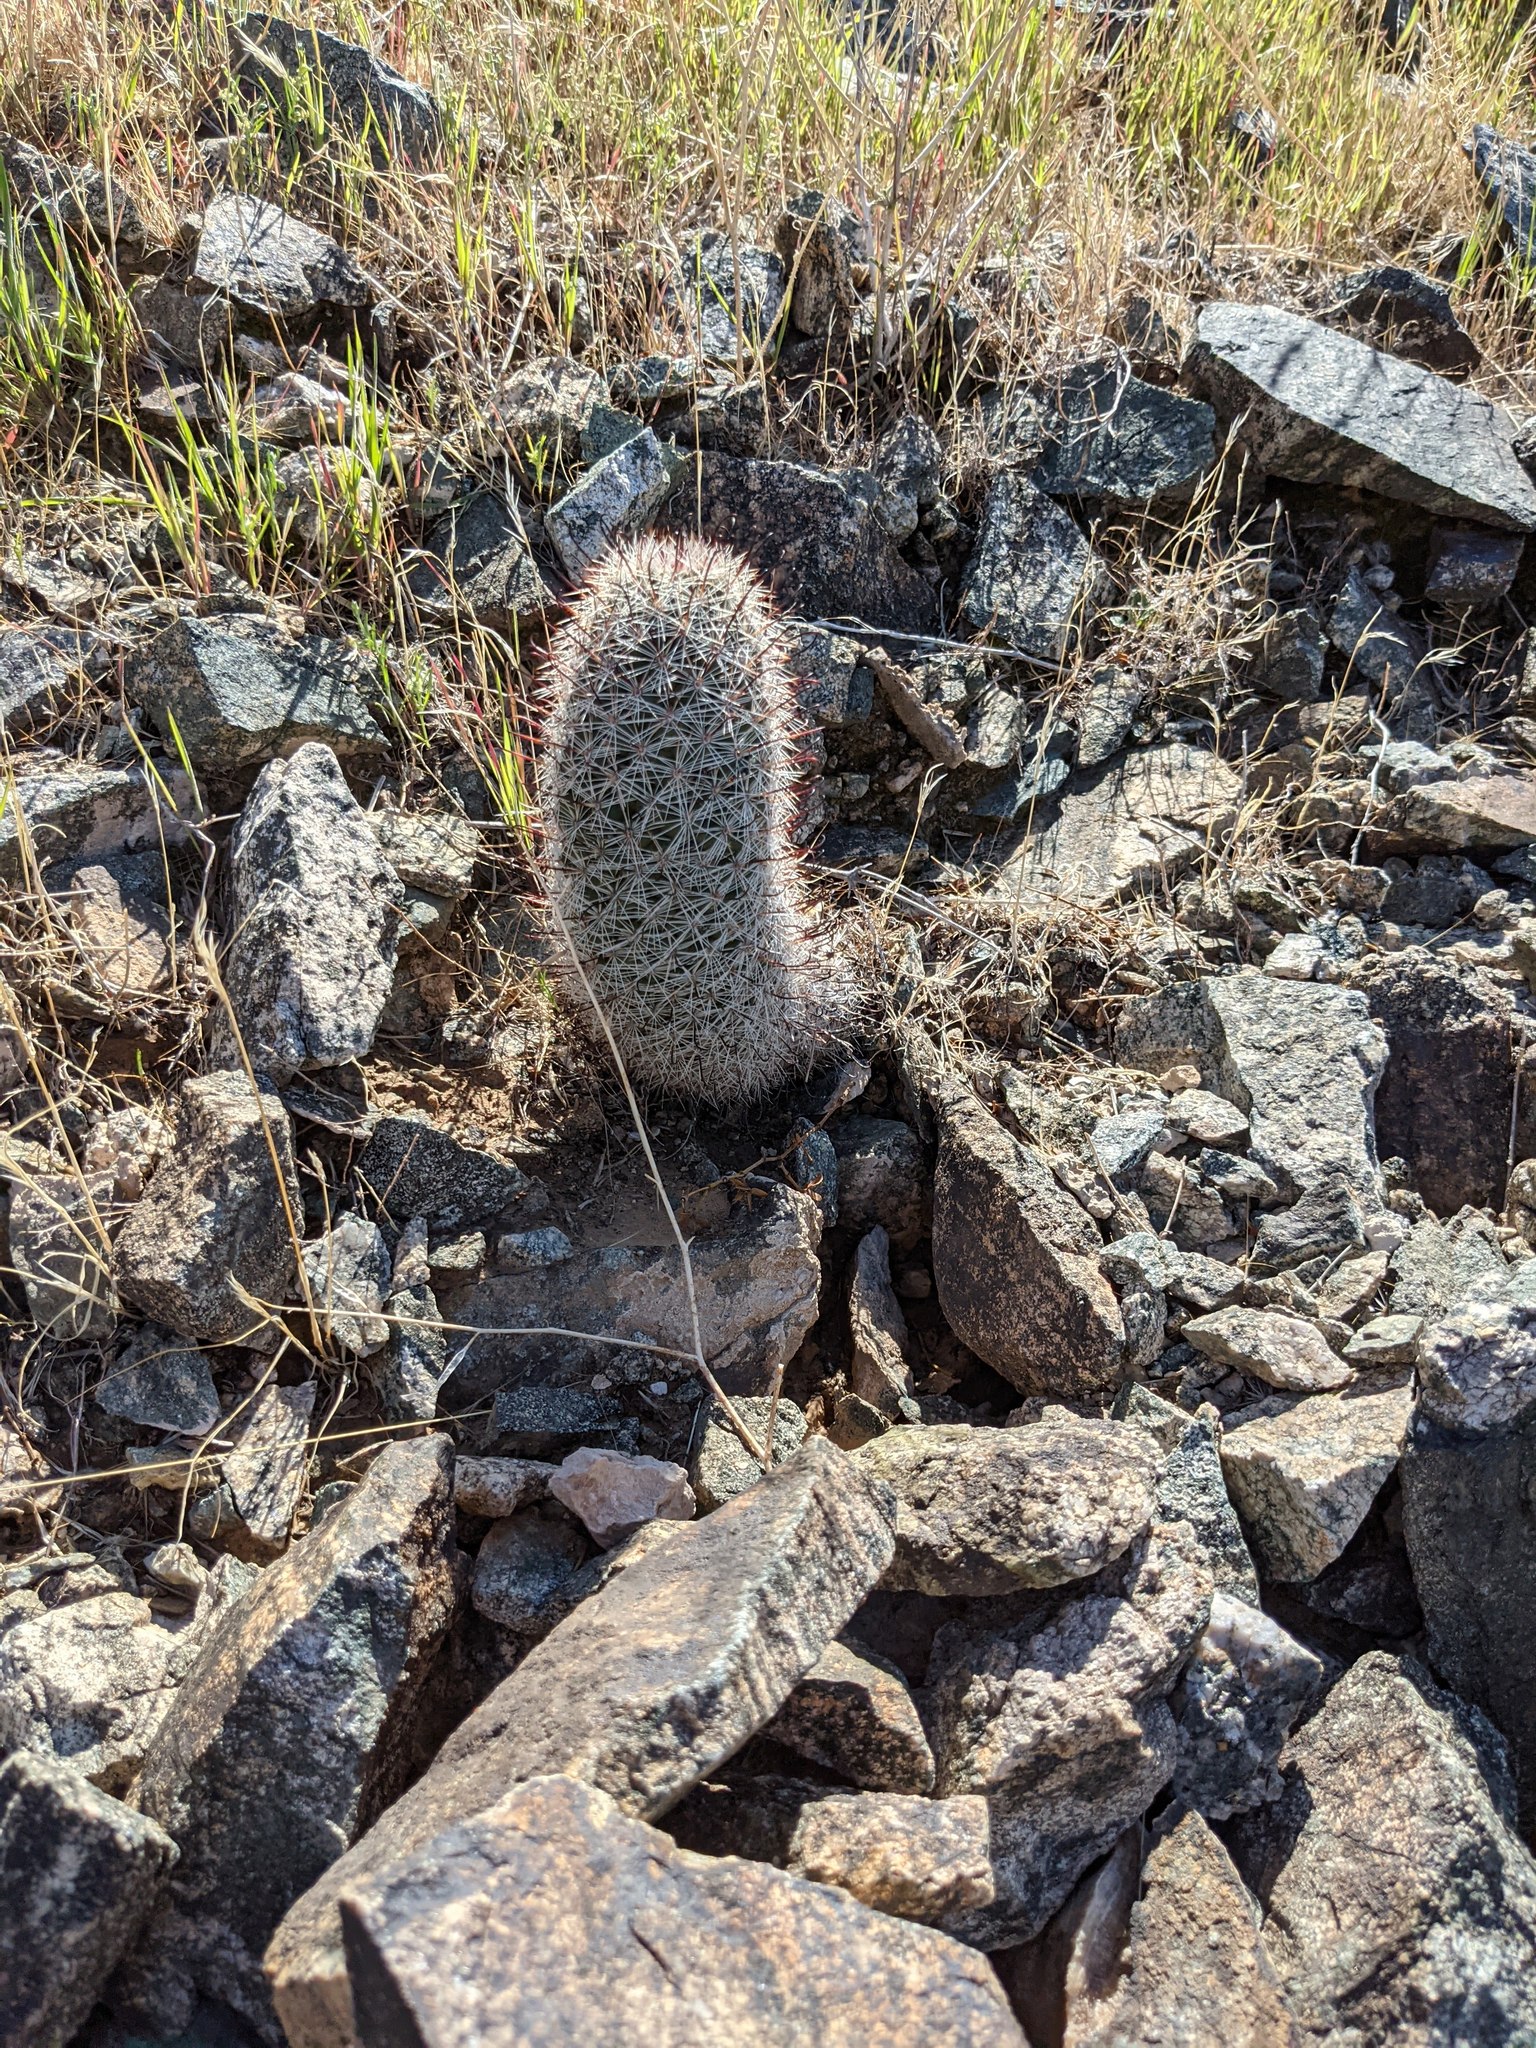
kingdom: Plantae
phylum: Tracheophyta
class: Magnoliopsida
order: Caryophyllales
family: Cactaceae
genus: Cochemiea
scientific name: Cochemiea grahamii
